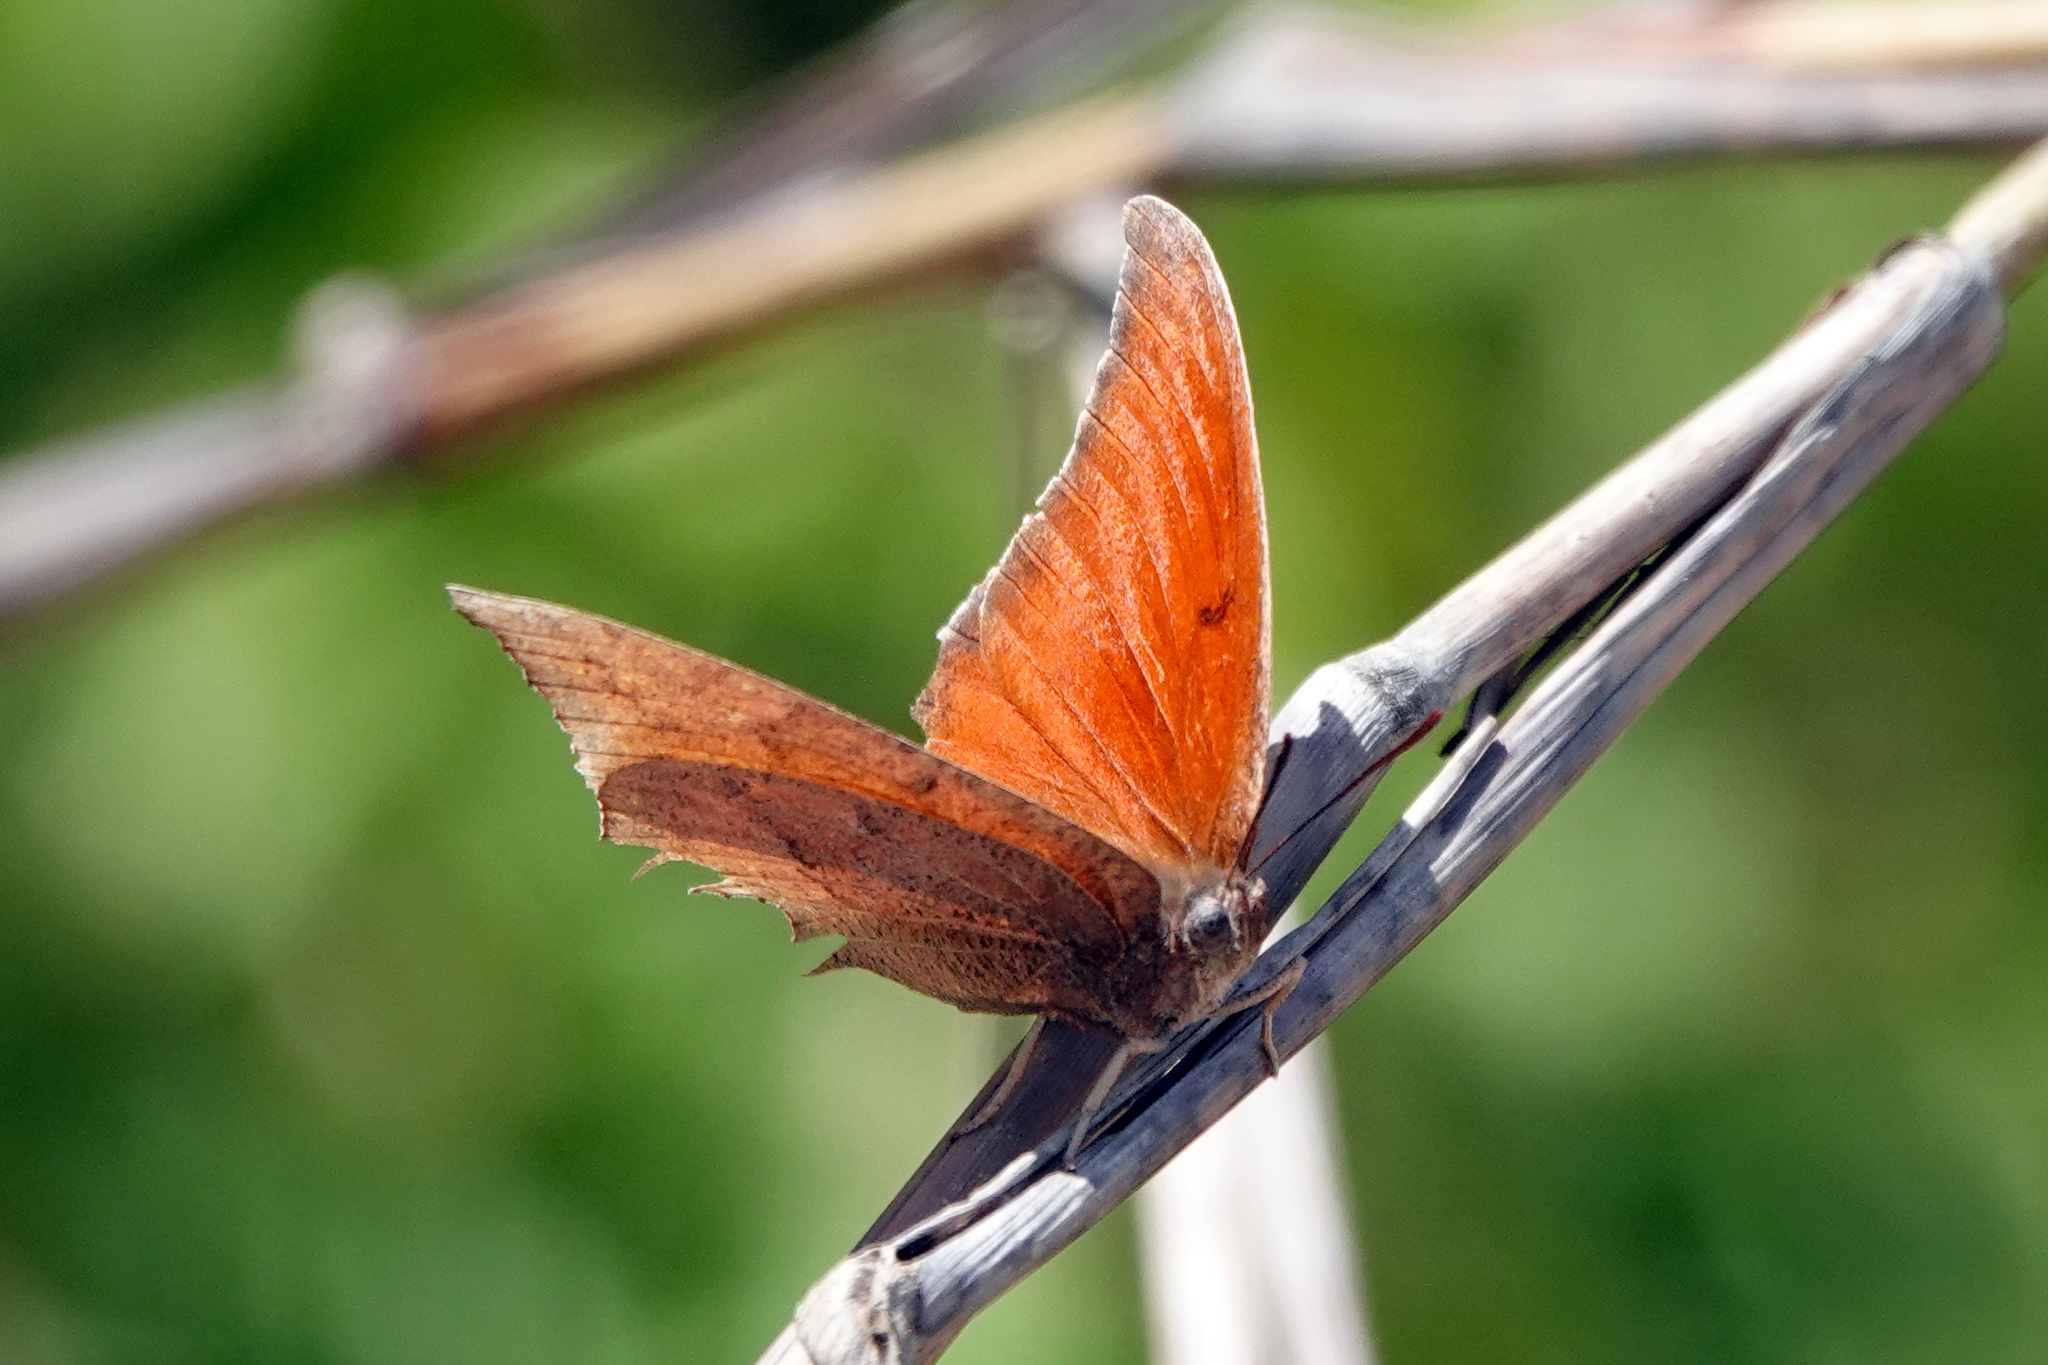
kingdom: Animalia
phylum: Arthropoda
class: Insecta
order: Lepidoptera
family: Nymphalidae
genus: Anaea
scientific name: Anaea andria
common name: Goatweed leafwing
